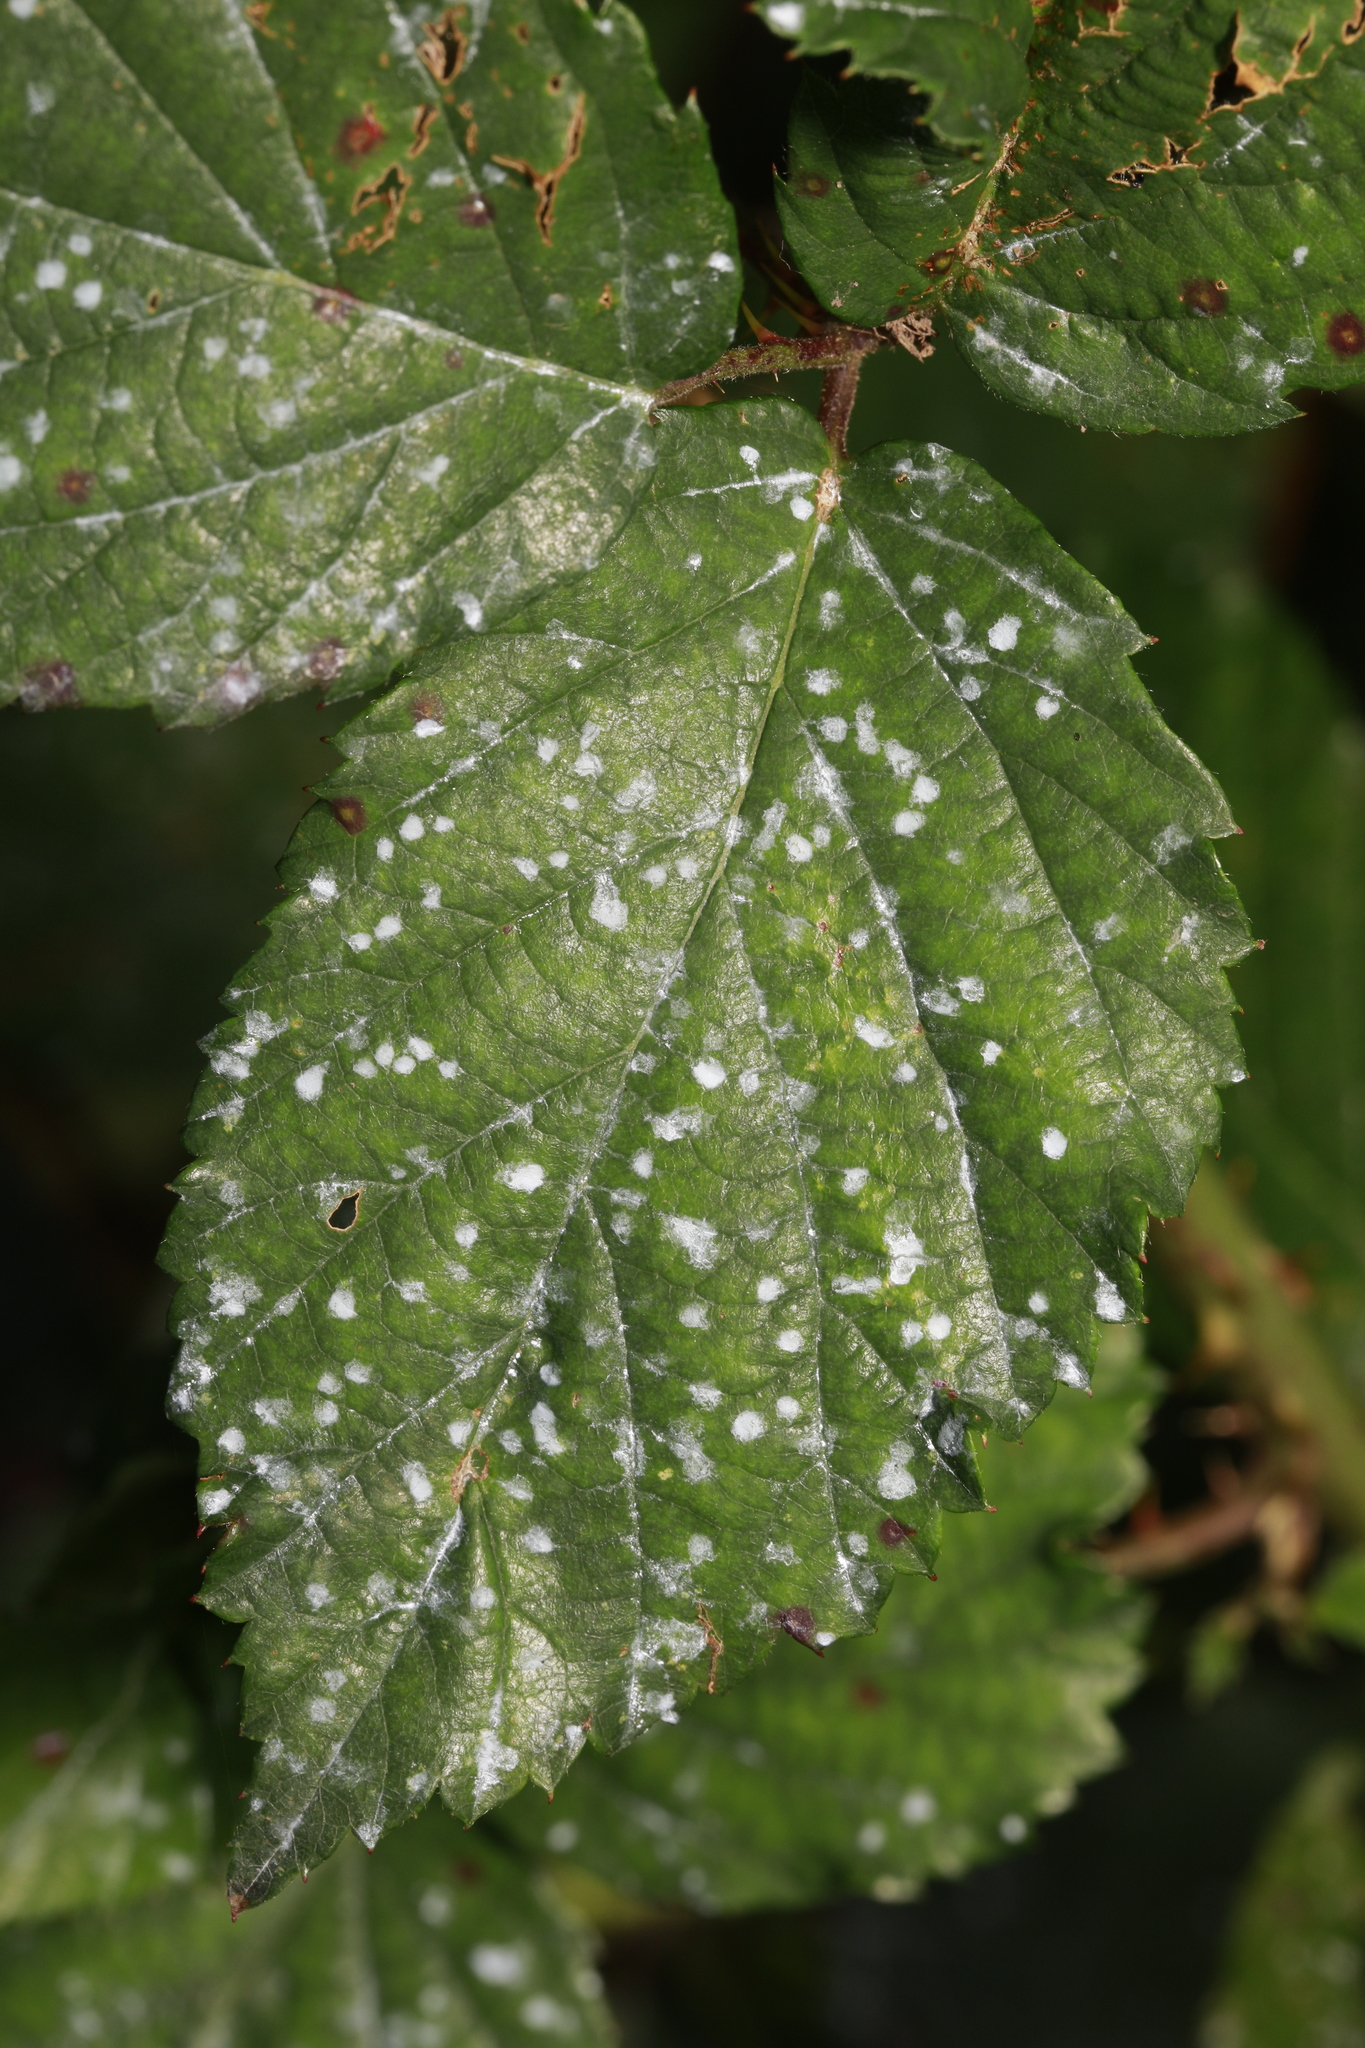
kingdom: Fungi
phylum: Ascomycota
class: Leotiomycetes
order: Helotiales
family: Erysiphaceae
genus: Podosphaera
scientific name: Podosphaera aphanis
